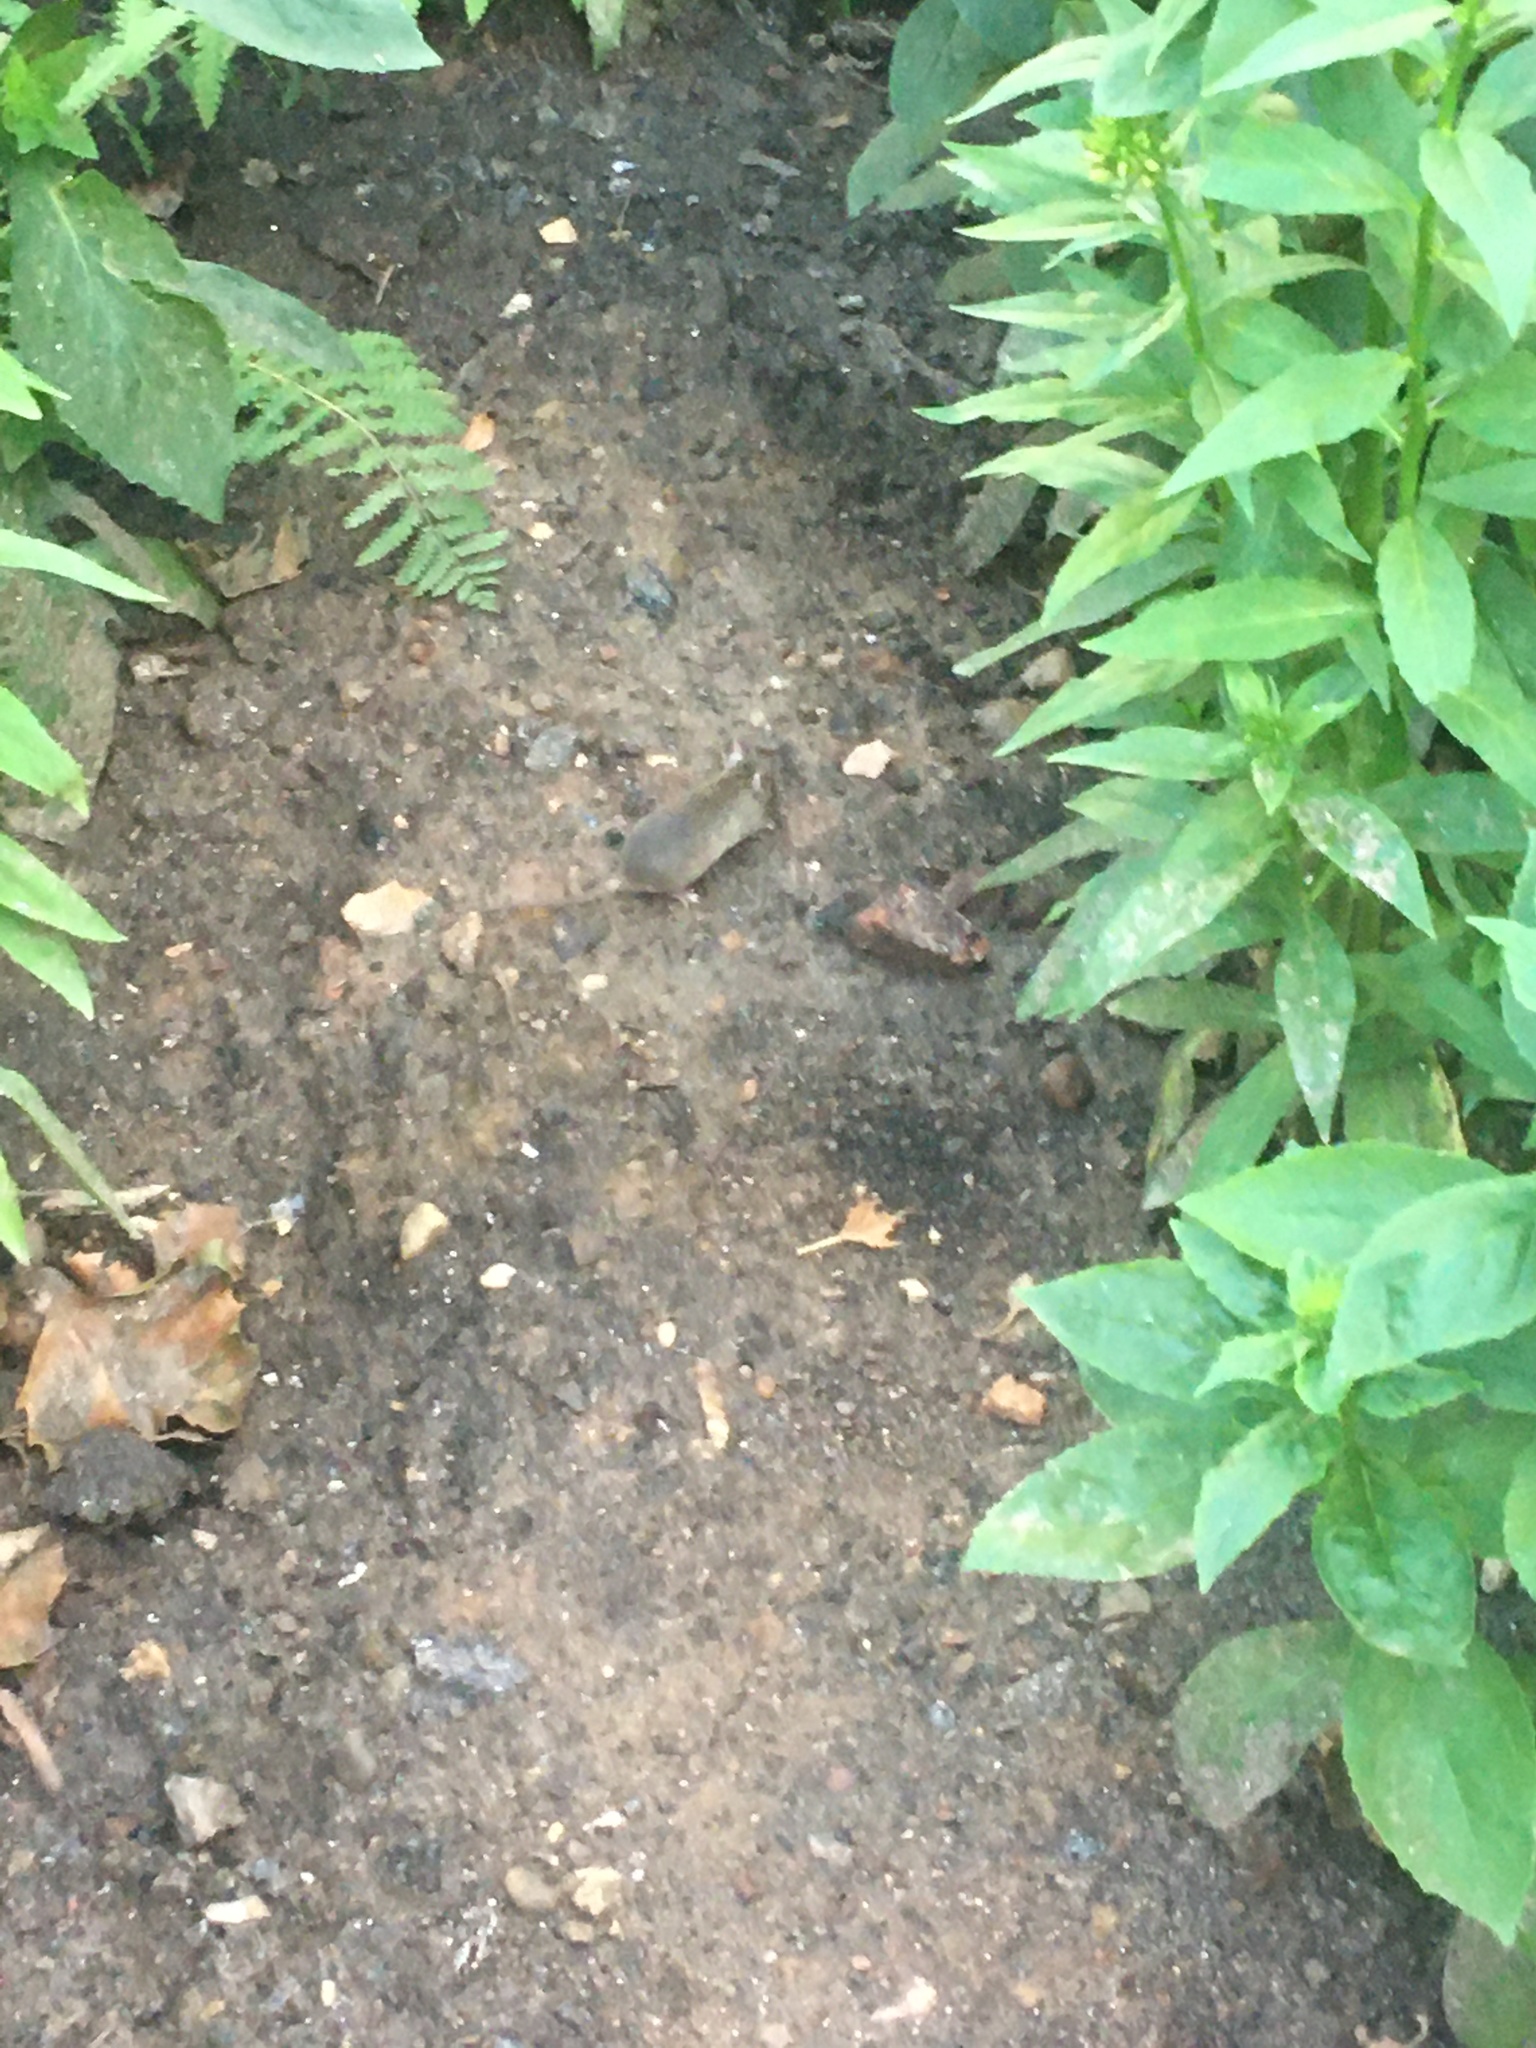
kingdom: Animalia
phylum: Chordata
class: Mammalia
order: Rodentia
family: Muridae
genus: Mus
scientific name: Mus musculus
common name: House mouse
